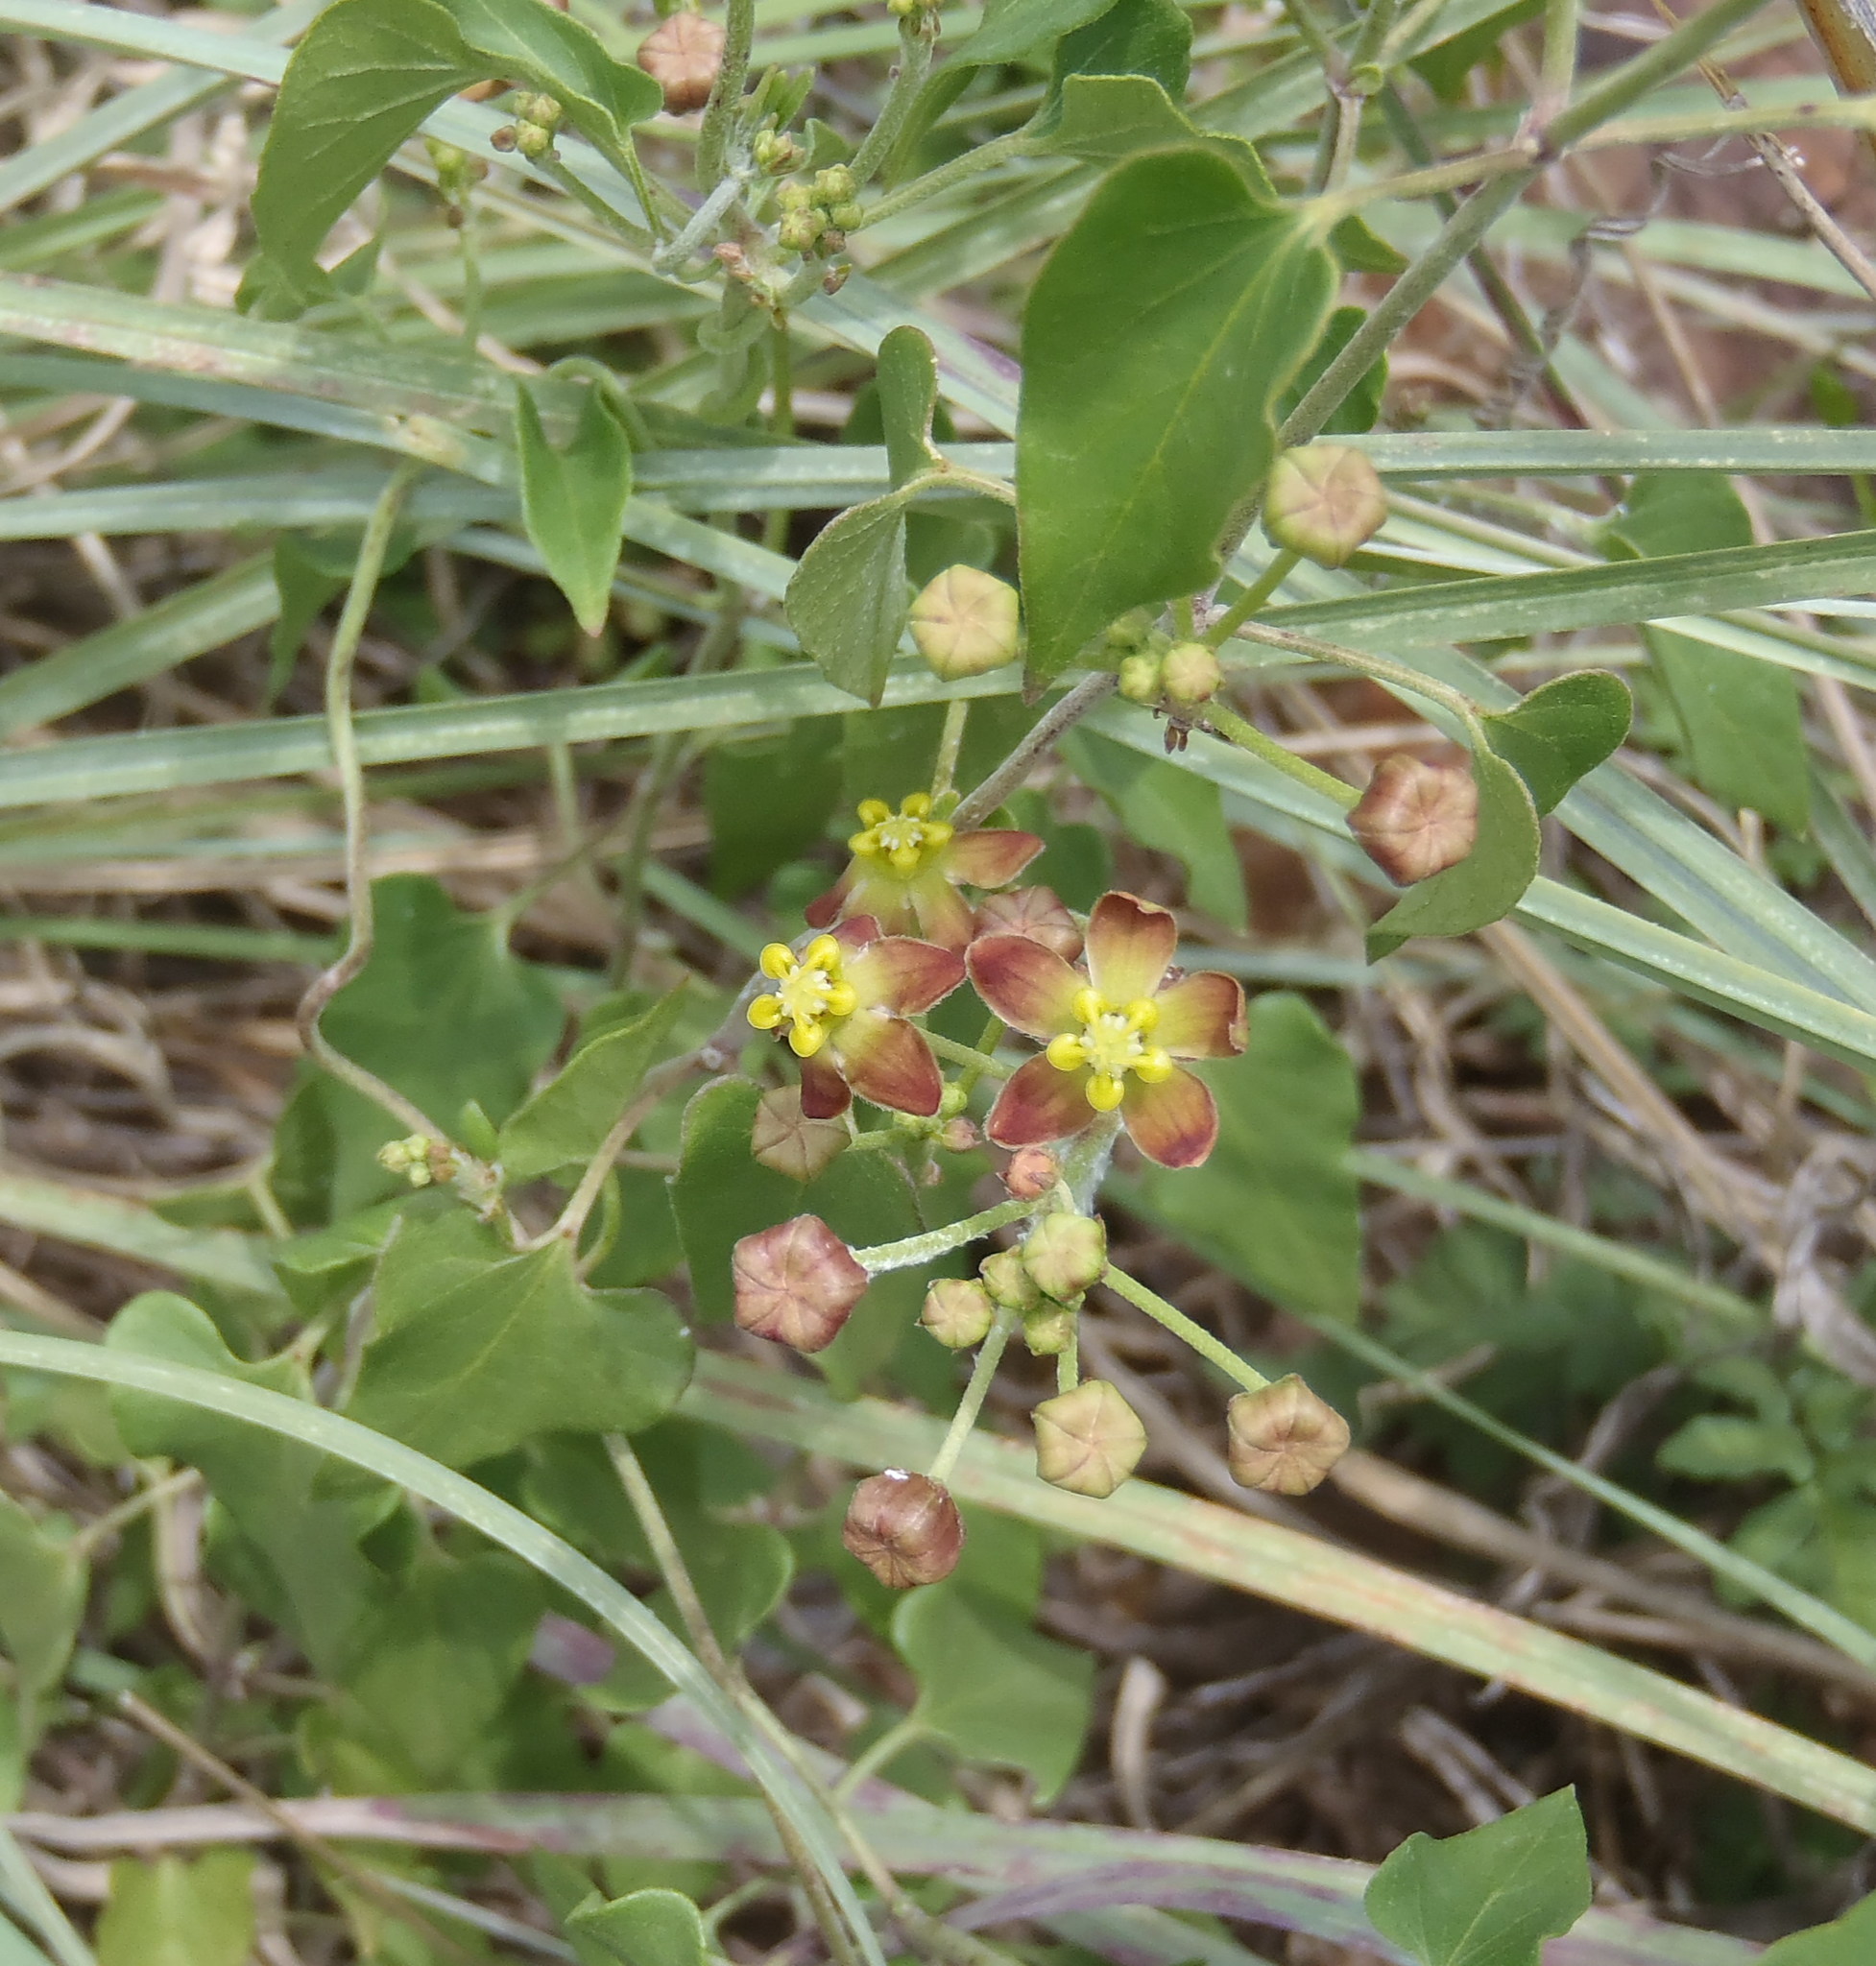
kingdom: Plantae
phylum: Tracheophyta
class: Magnoliopsida
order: Gentianales
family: Apocynaceae
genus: Cynanchum
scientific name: Cynanchum
